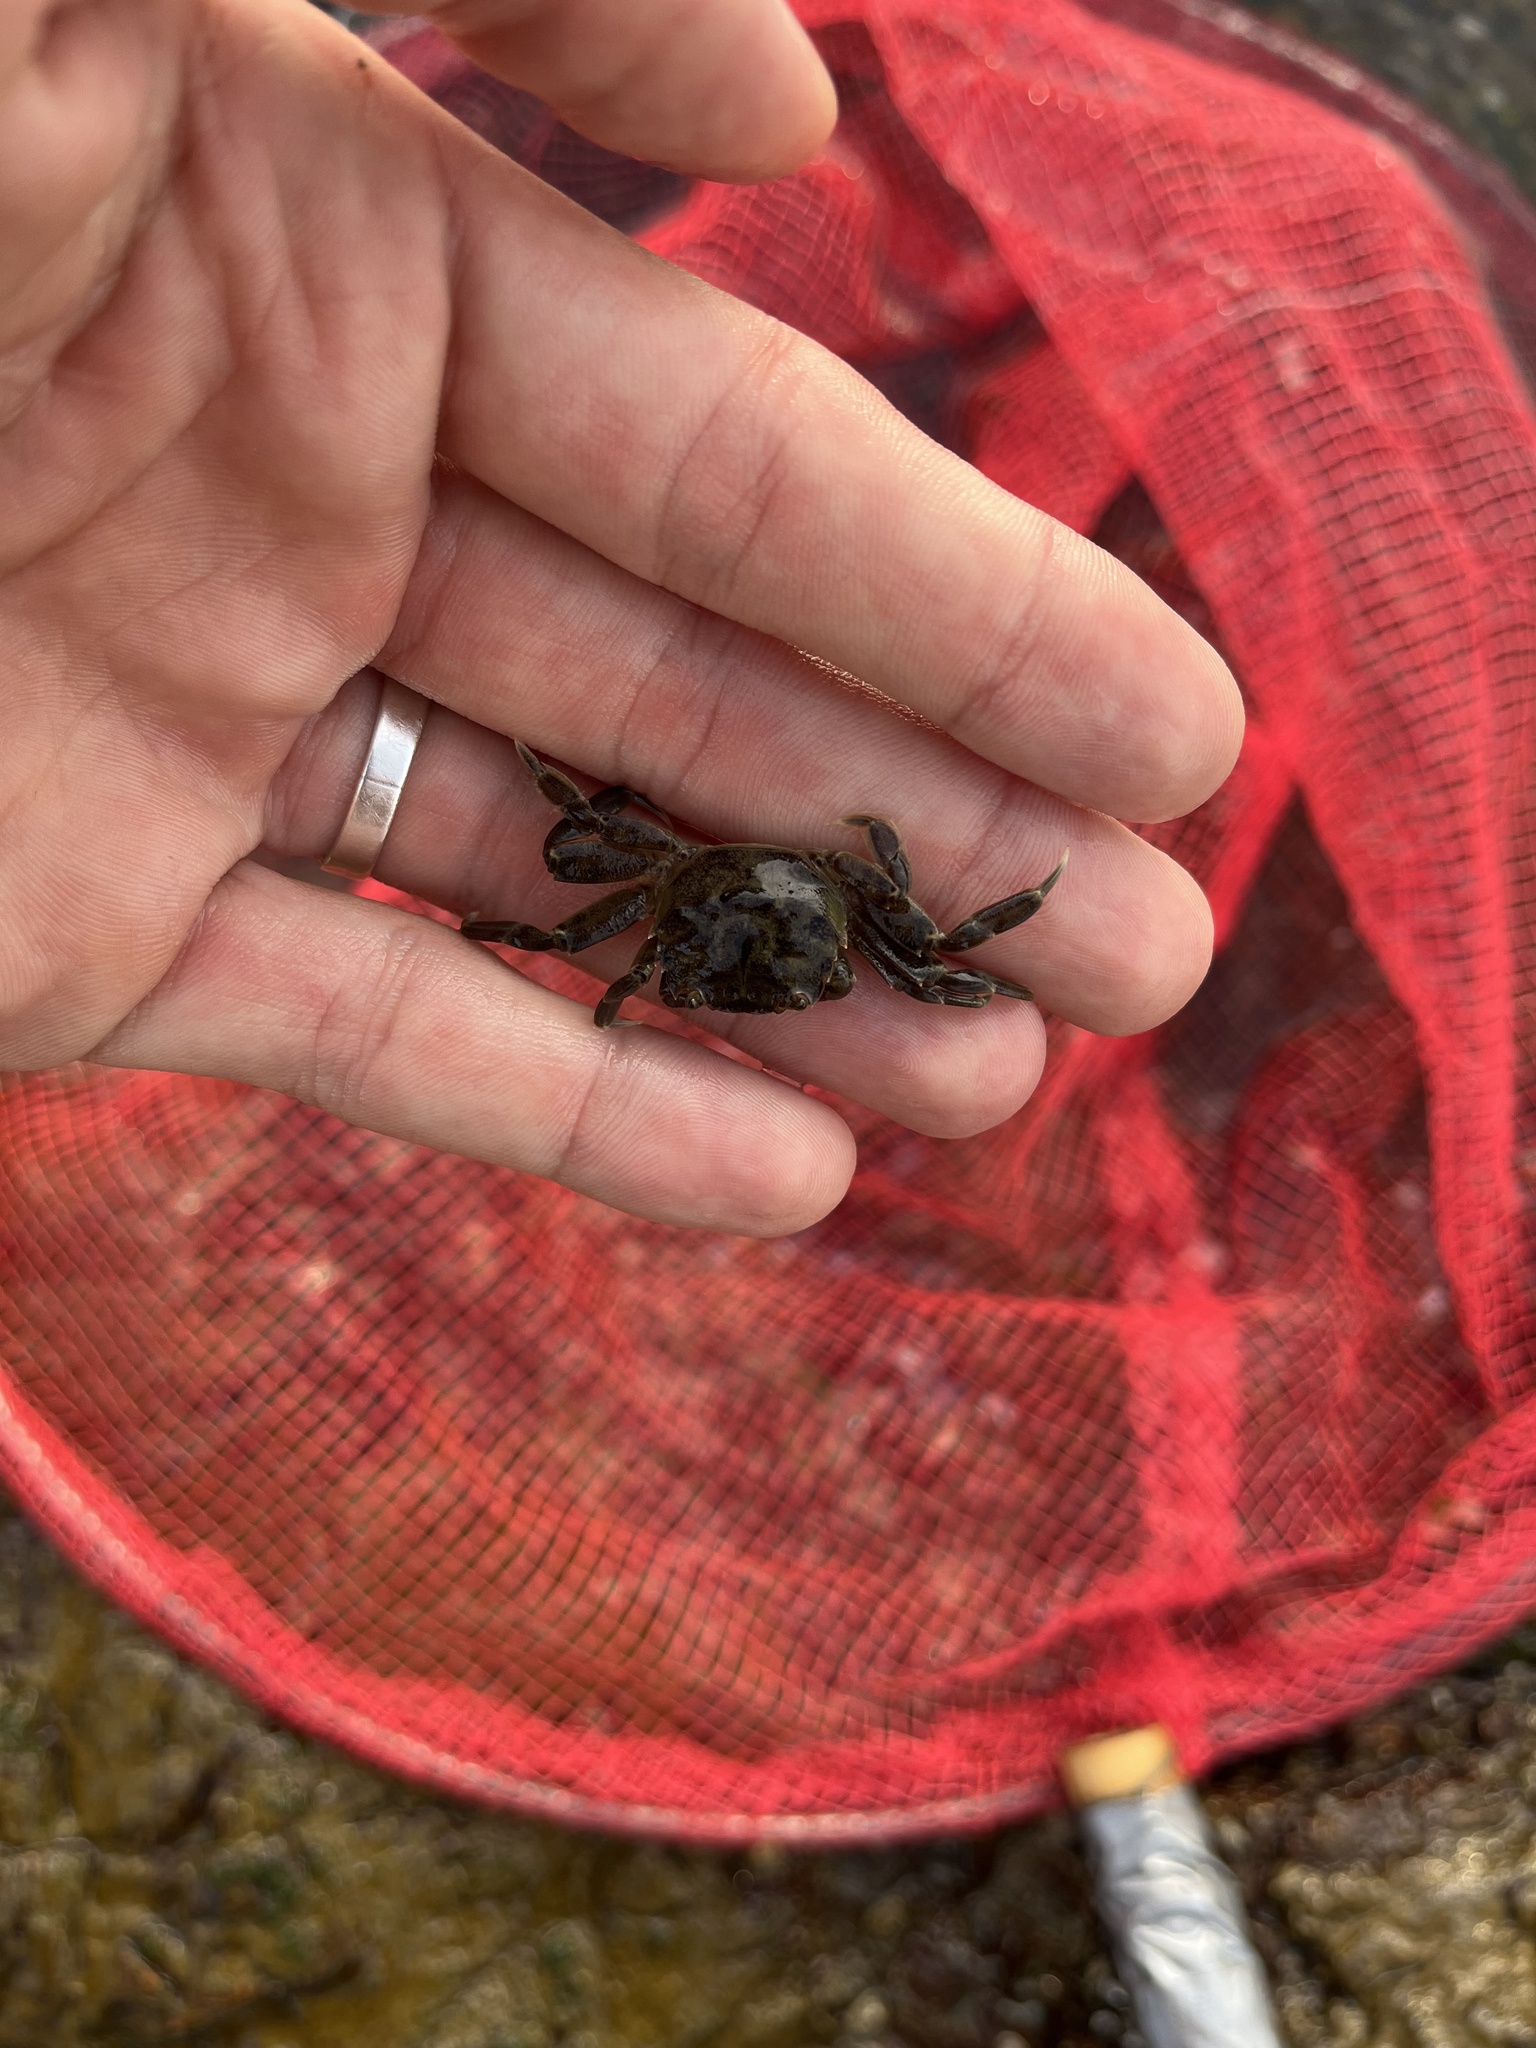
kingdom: Animalia
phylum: Arthropoda
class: Malacostraca
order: Decapoda
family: Varunidae
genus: Cyrtograpsus
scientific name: Cyrtograpsus angulatus
